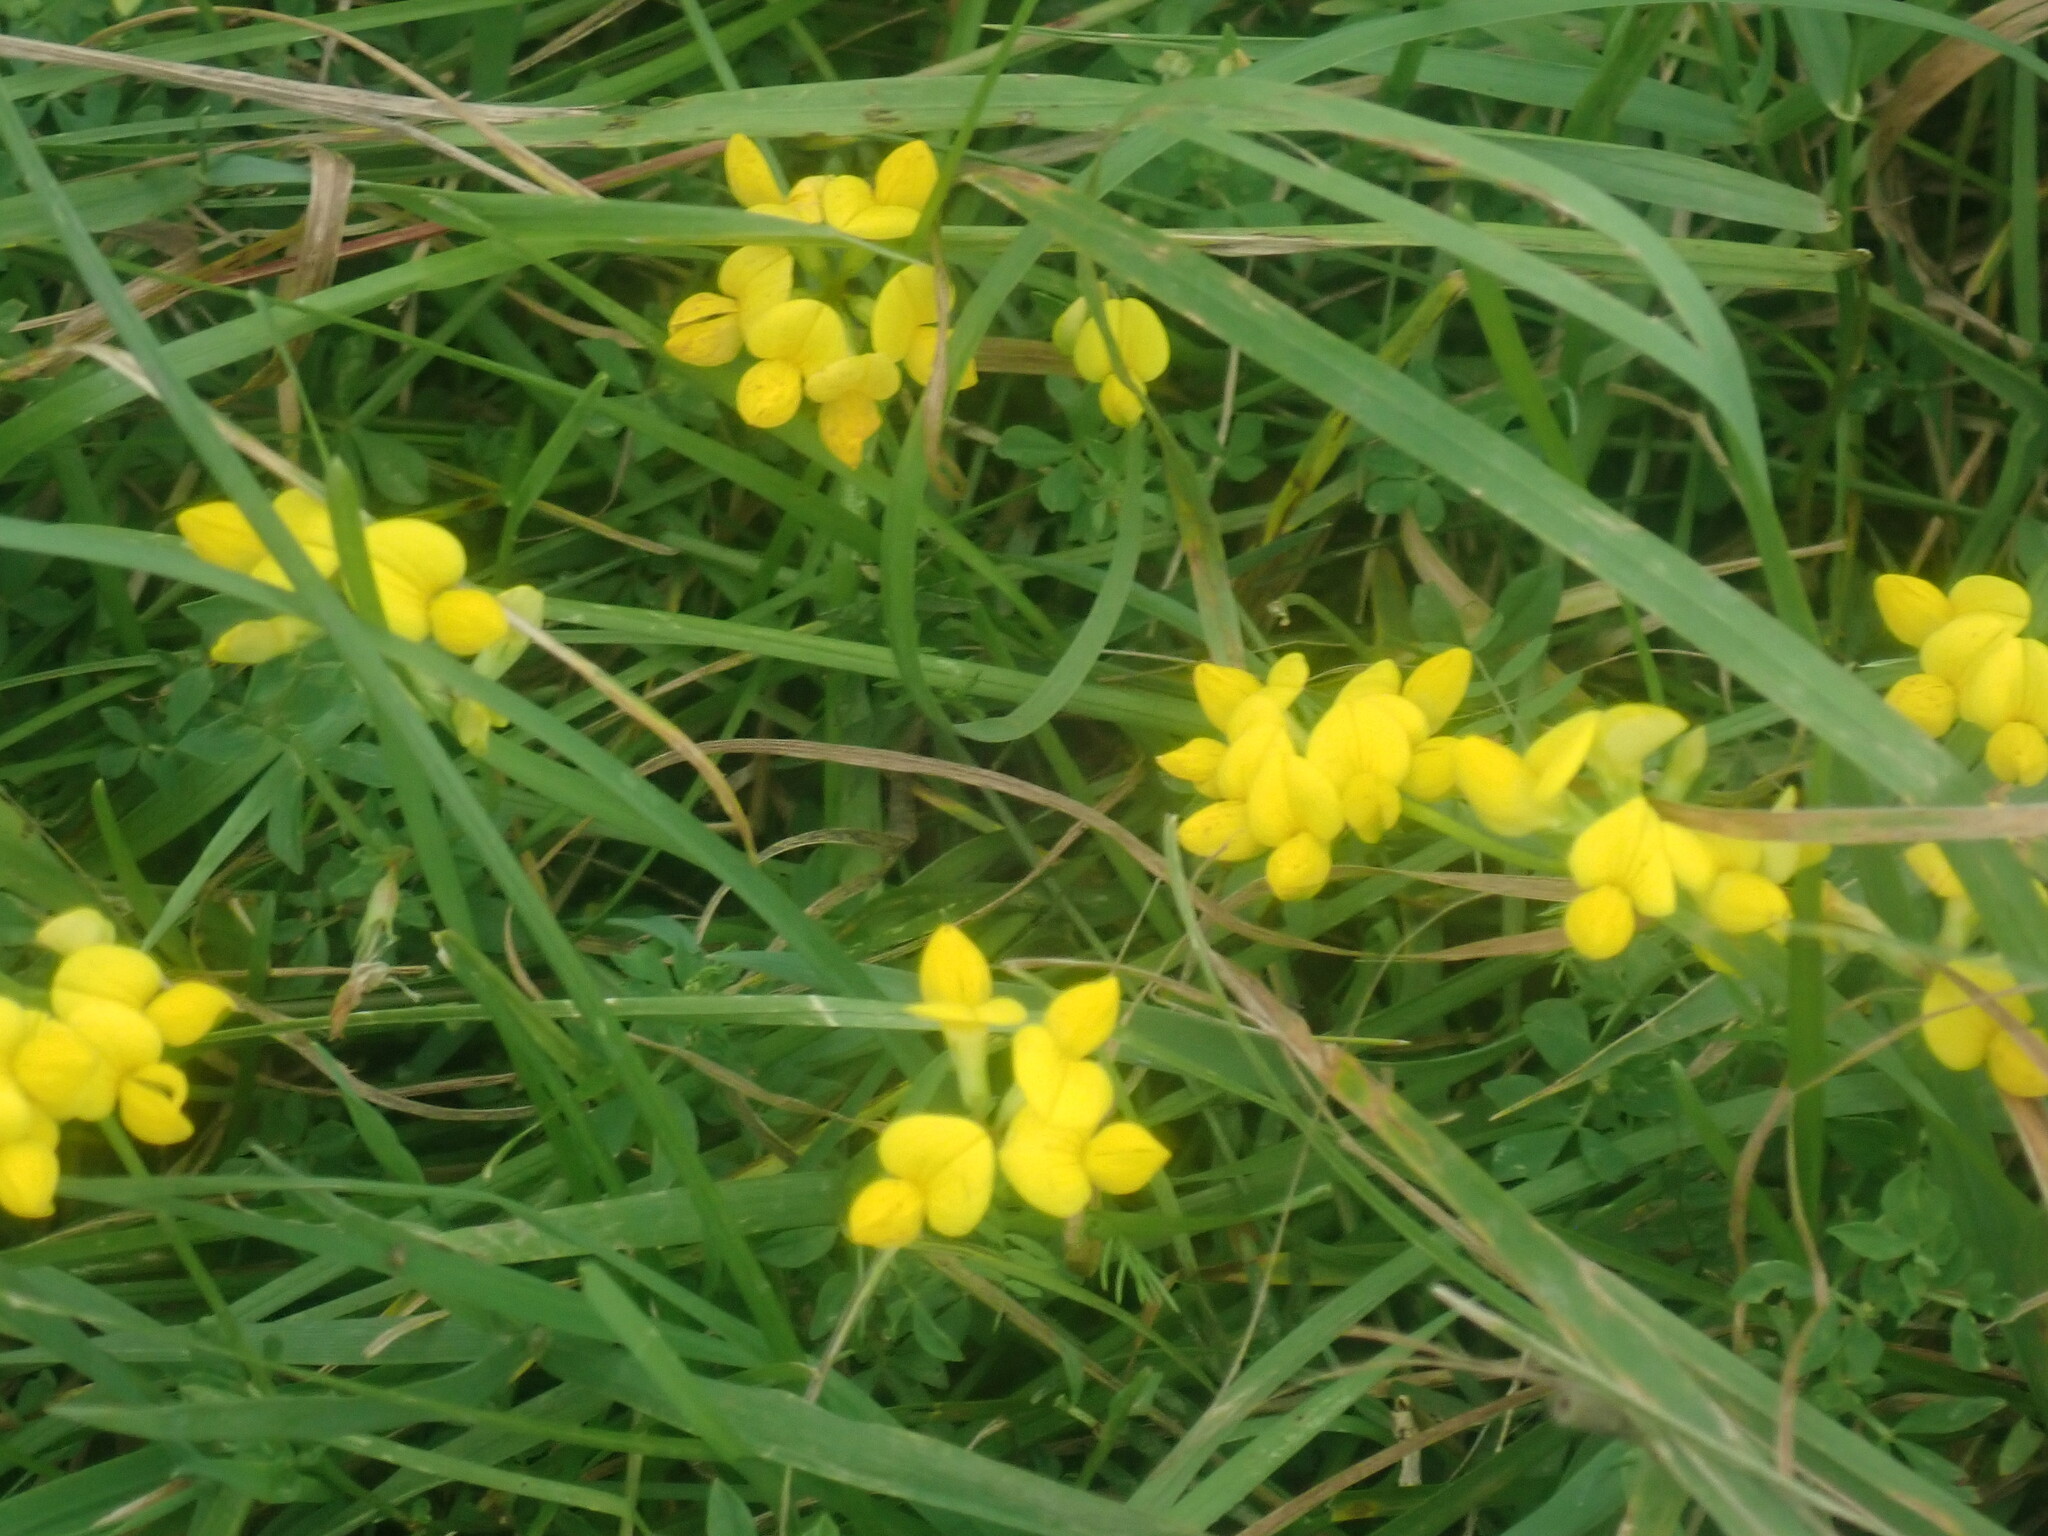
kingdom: Plantae
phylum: Tracheophyta
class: Magnoliopsida
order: Fabales
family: Fabaceae
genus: Lotus
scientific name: Lotus corniculatus
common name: Common bird's-foot-trefoil
